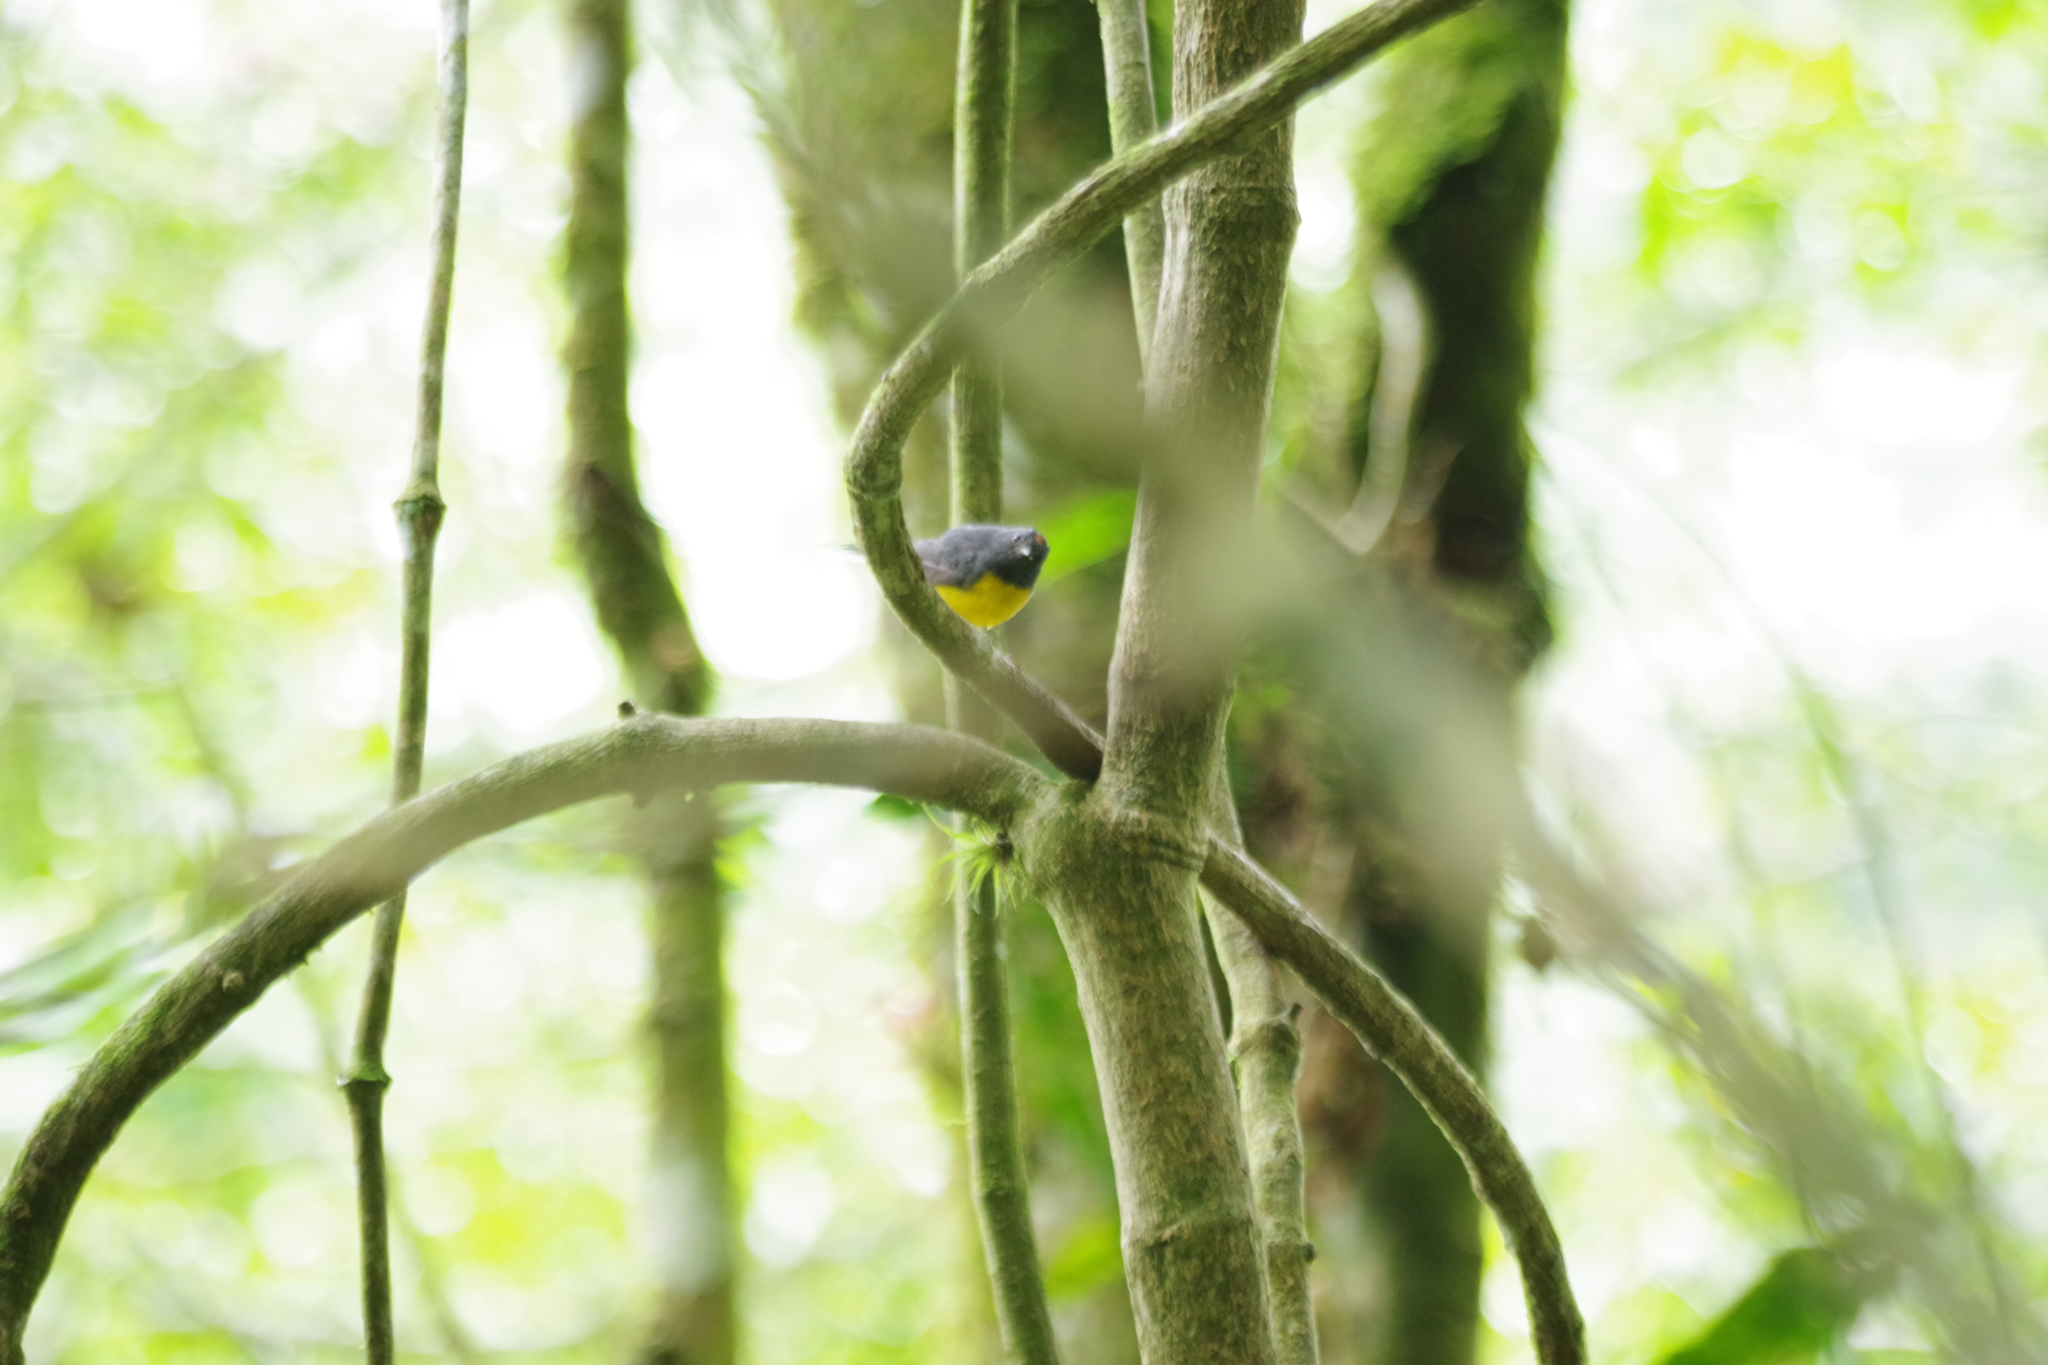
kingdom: Animalia
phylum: Chordata
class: Aves
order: Passeriformes
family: Parulidae
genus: Myioborus
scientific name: Myioborus miniatus
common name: Slate-throated redstart
